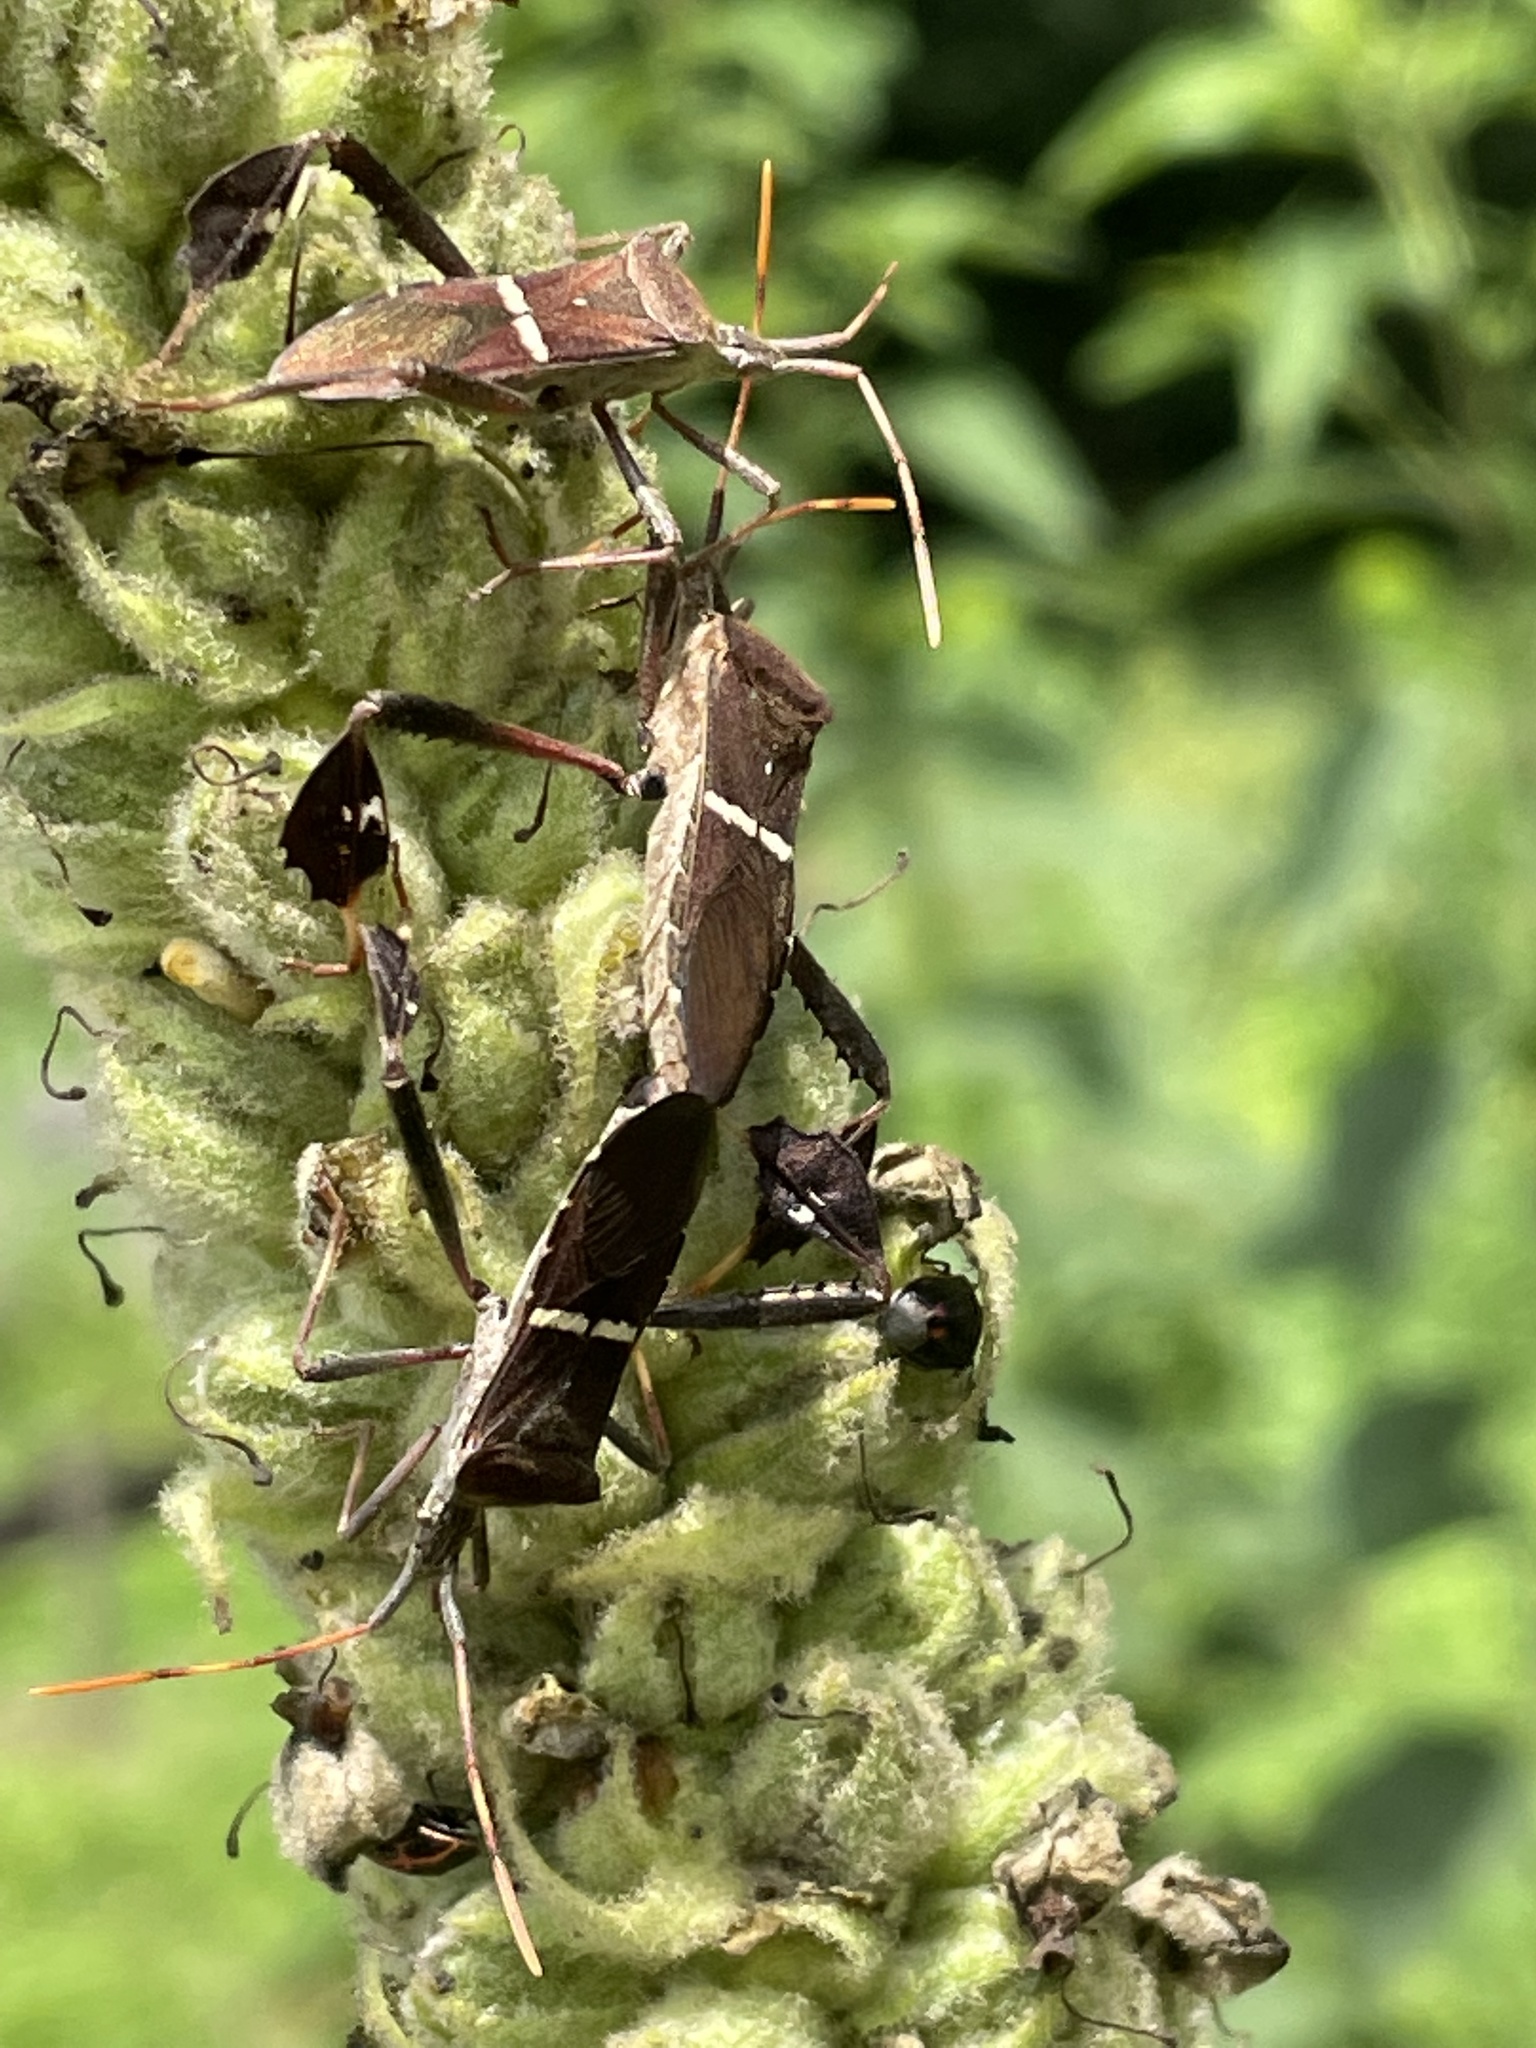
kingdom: Animalia
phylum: Arthropoda
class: Insecta
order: Hemiptera
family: Coreidae
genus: Leptoglossus
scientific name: Leptoglossus phyllopus
